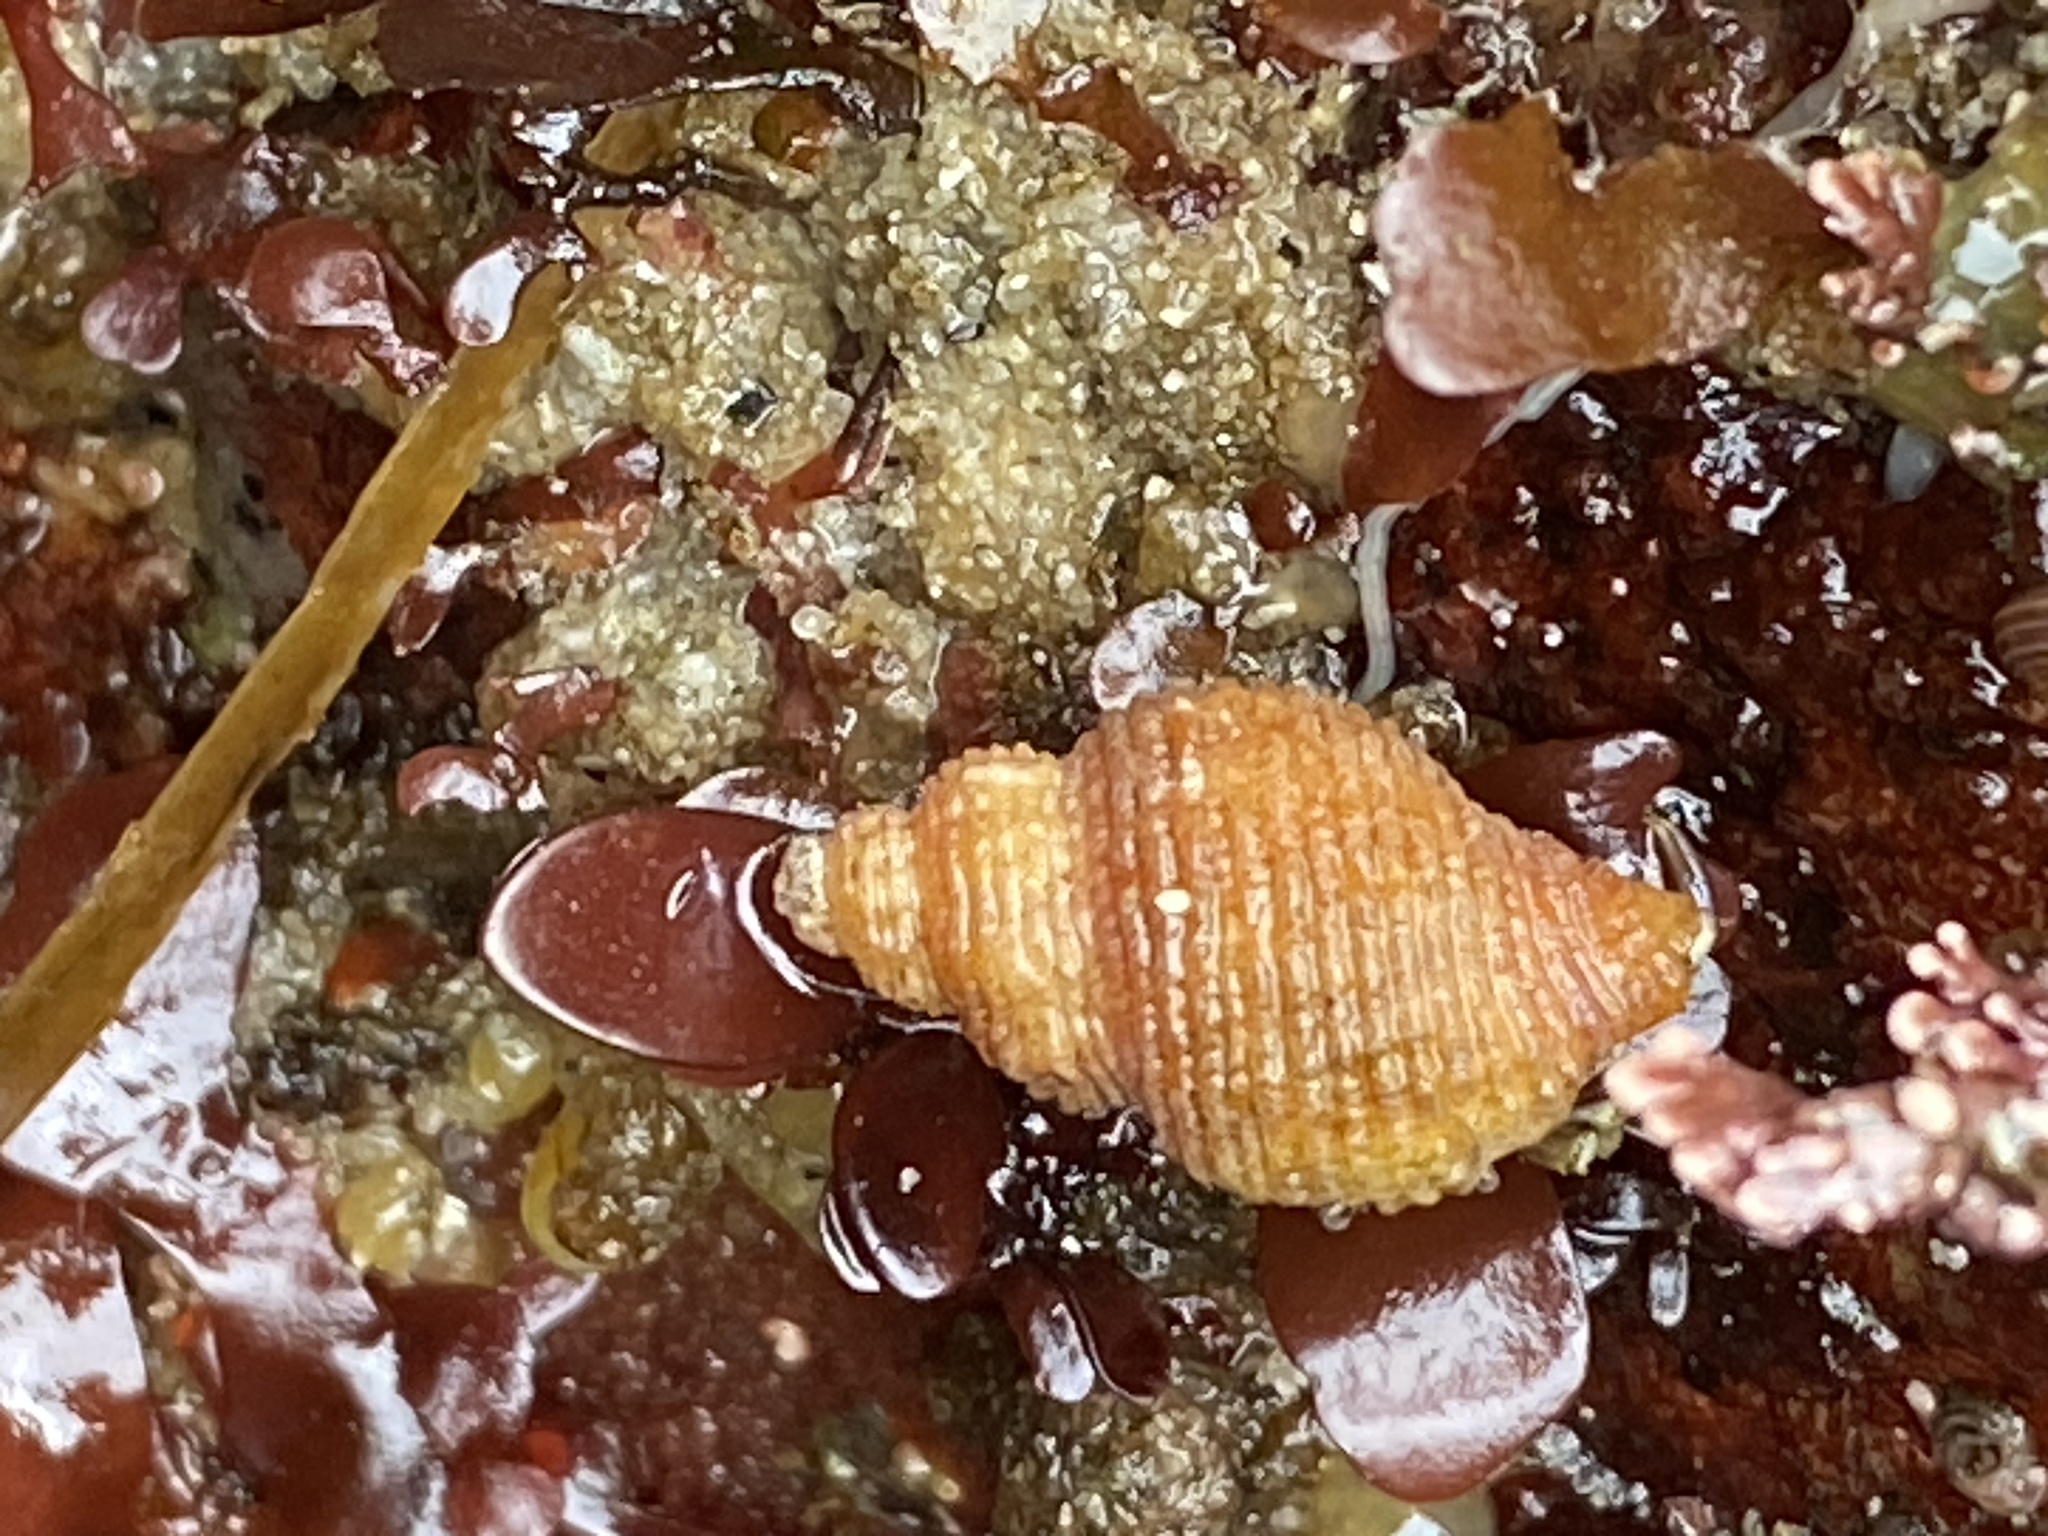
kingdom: Animalia
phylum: Mollusca
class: Gastropoda
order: Neogastropoda
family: Muricidae
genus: Paciocinebrina
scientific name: Paciocinebrina lurida
